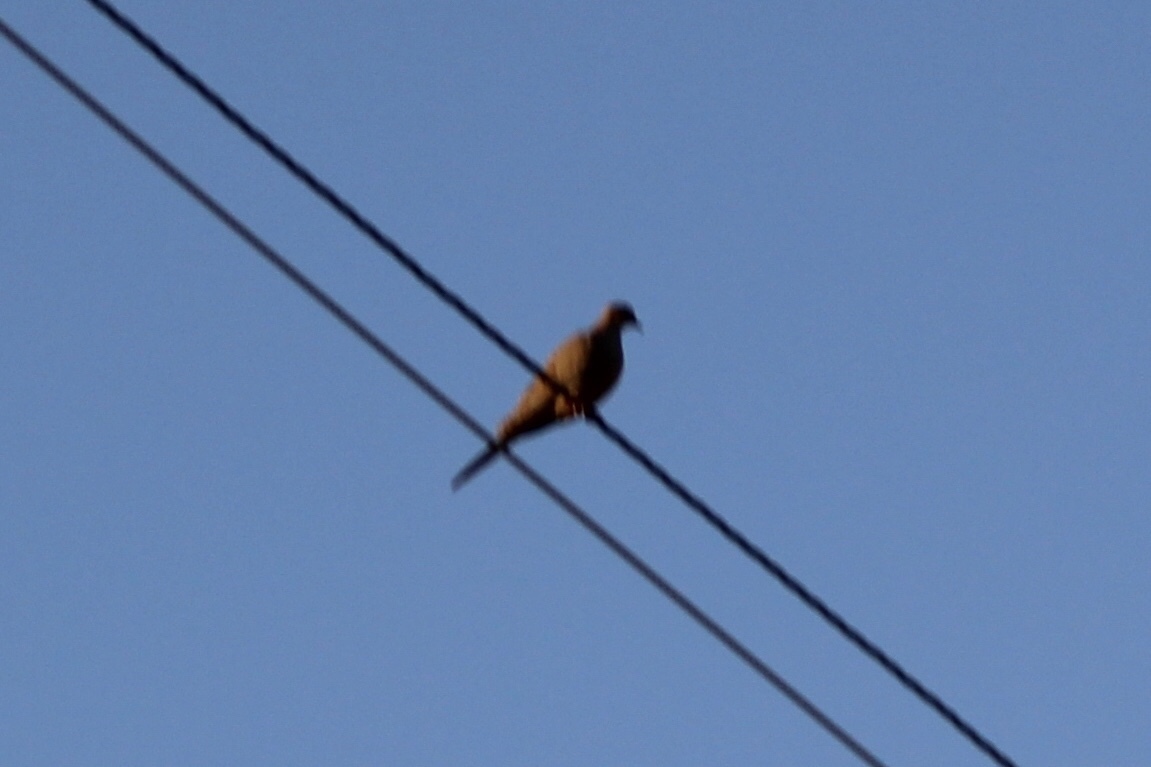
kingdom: Animalia
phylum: Chordata
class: Aves
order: Columbiformes
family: Columbidae
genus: Zenaida
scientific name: Zenaida macroura
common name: Mourning dove
